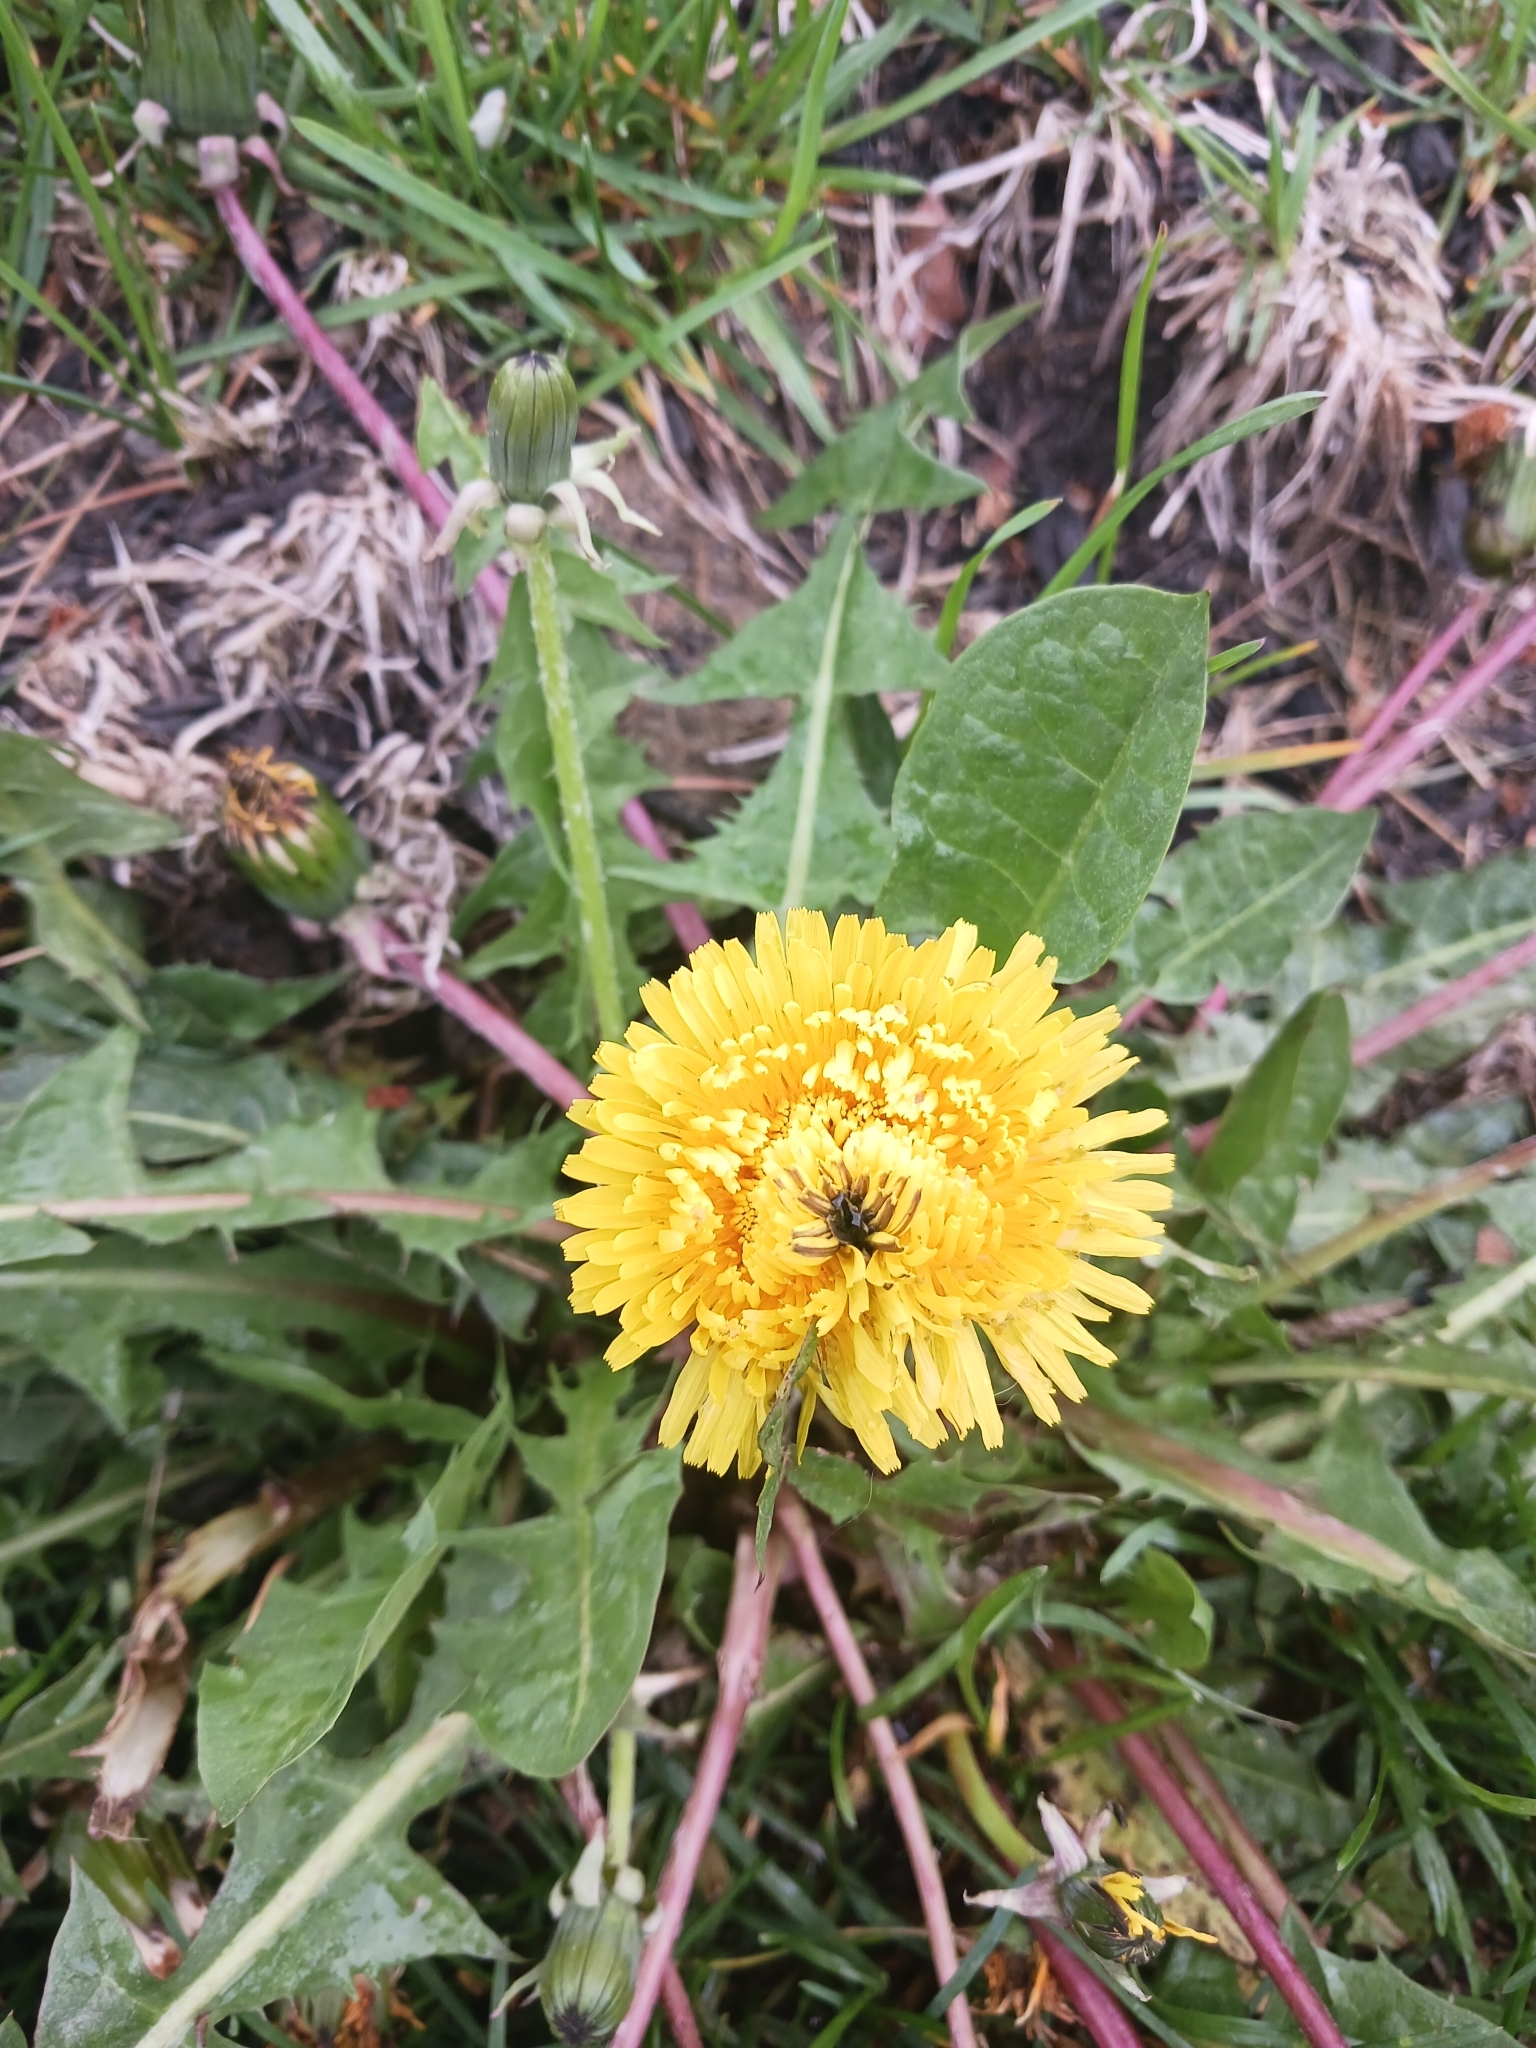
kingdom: Plantae
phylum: Tracheophyta
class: Magnoliopsida
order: Asterales
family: Asteraceae
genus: Taraxacum
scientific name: Taraxacum
